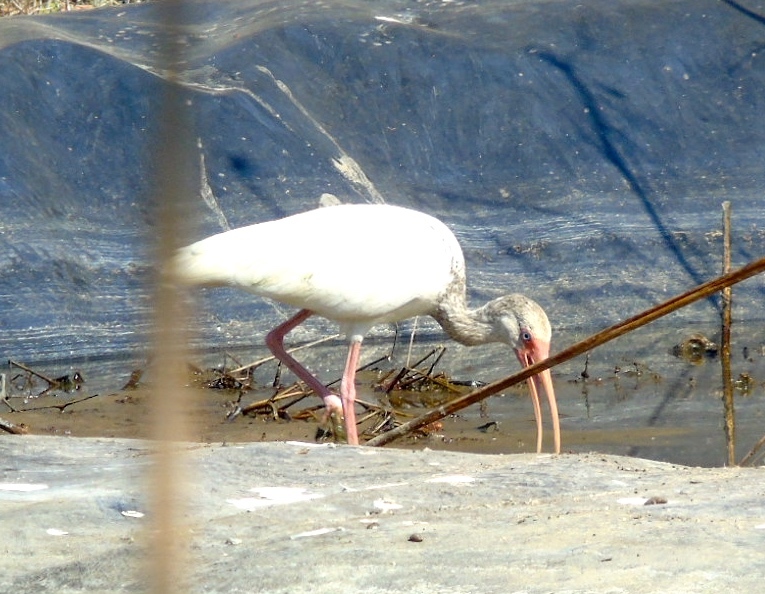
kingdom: Animalia
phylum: Chordata
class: Aves
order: Pelecaniformes
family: Threskiornithidae
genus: Eudocimus
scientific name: Eudocimus albus
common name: White ibis
